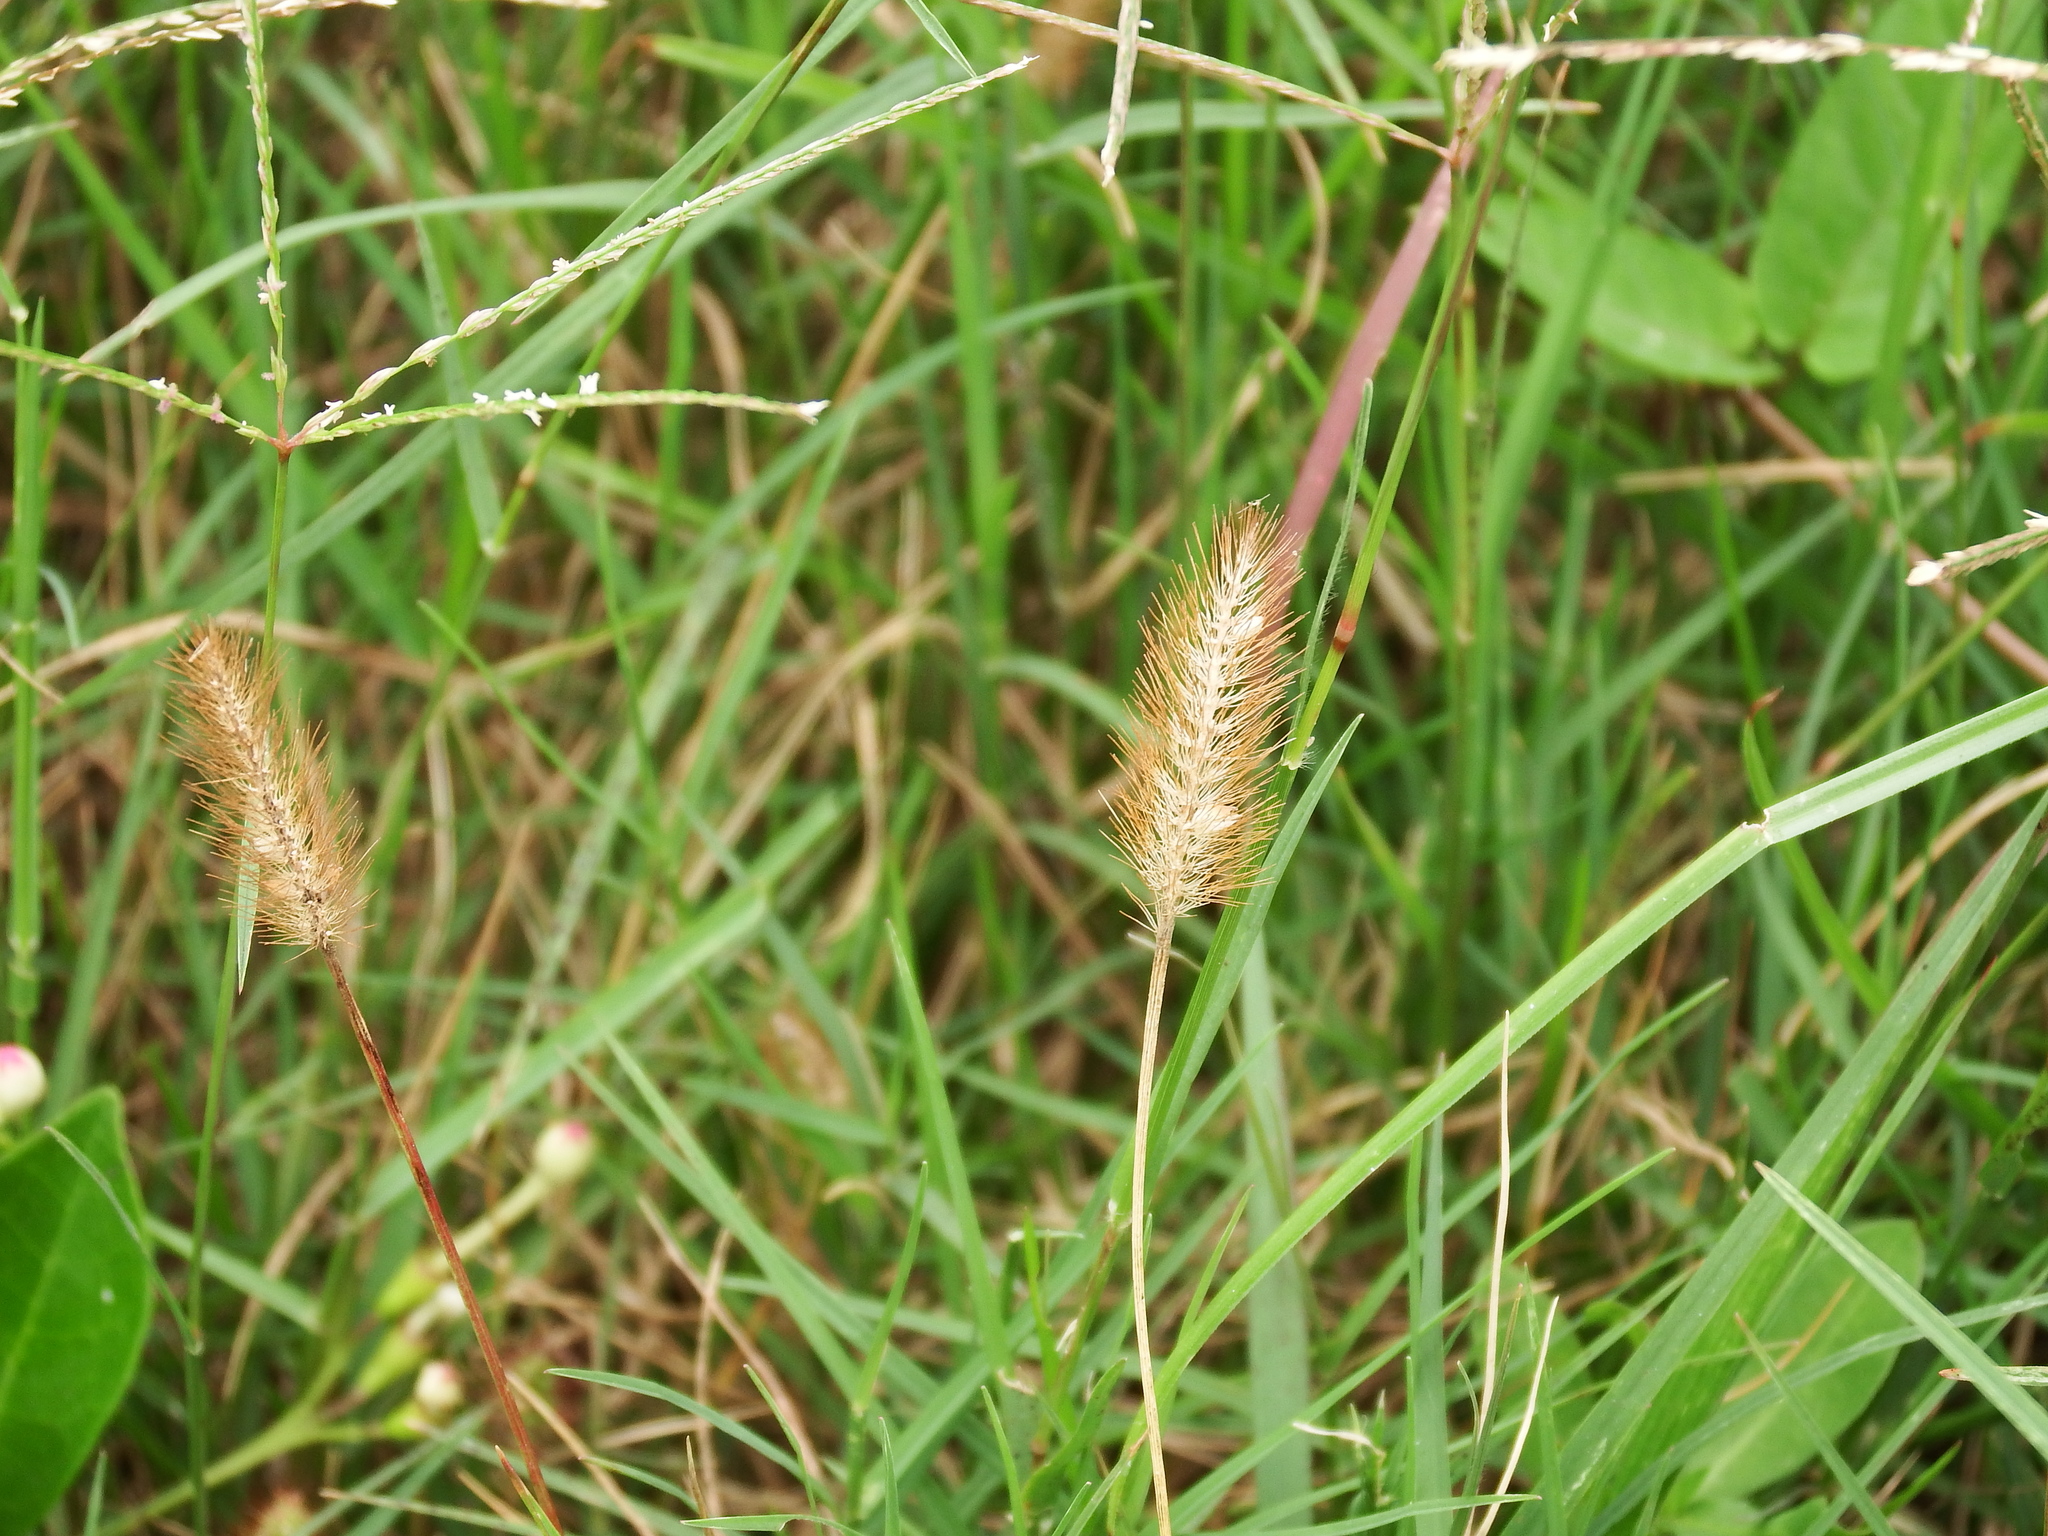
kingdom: Plantae
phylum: Tracheophyta
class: Liliopsida
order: Poales
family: Poaceae
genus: Setaria
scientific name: Setaria parviflora
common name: Knotroot bristle-grass
